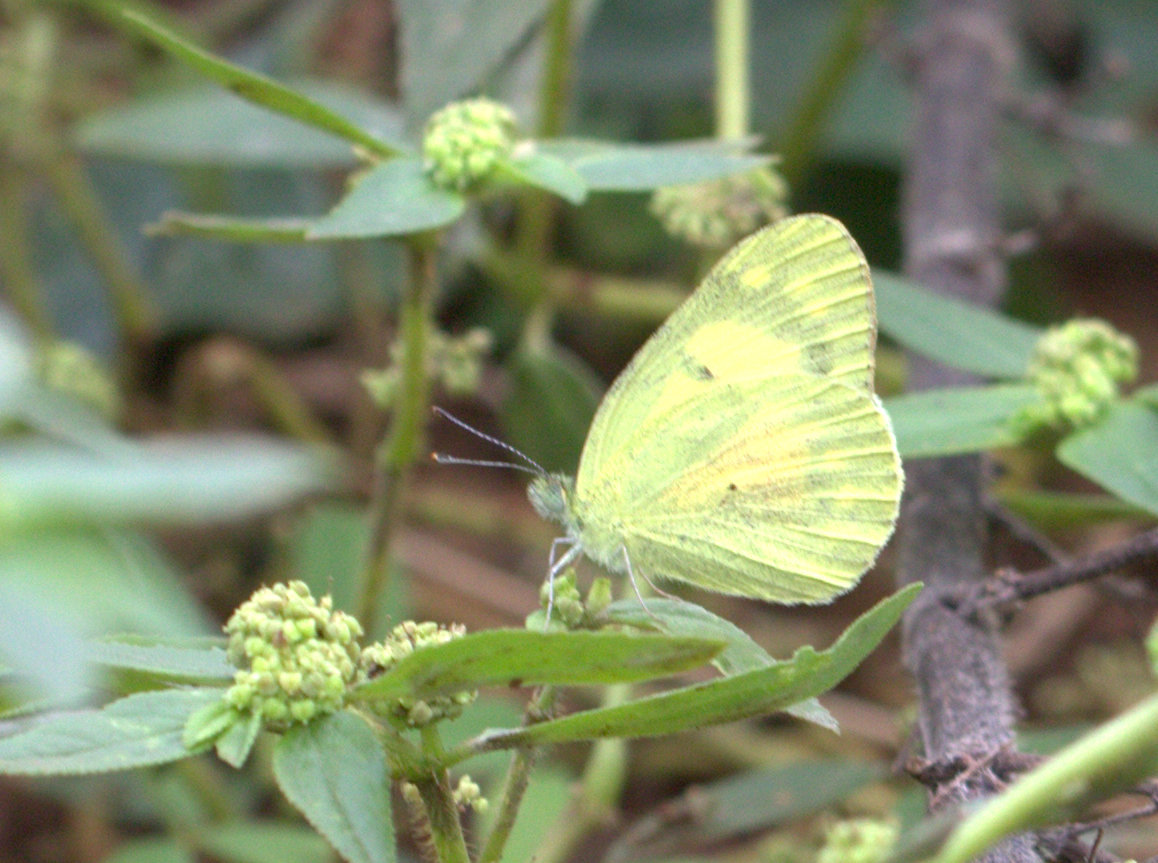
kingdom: Animalia
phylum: Arthropoda
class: Insecta
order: Lepidoptera
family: Pieridae
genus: Colotis
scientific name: Colotis amata
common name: Small salmon arab
